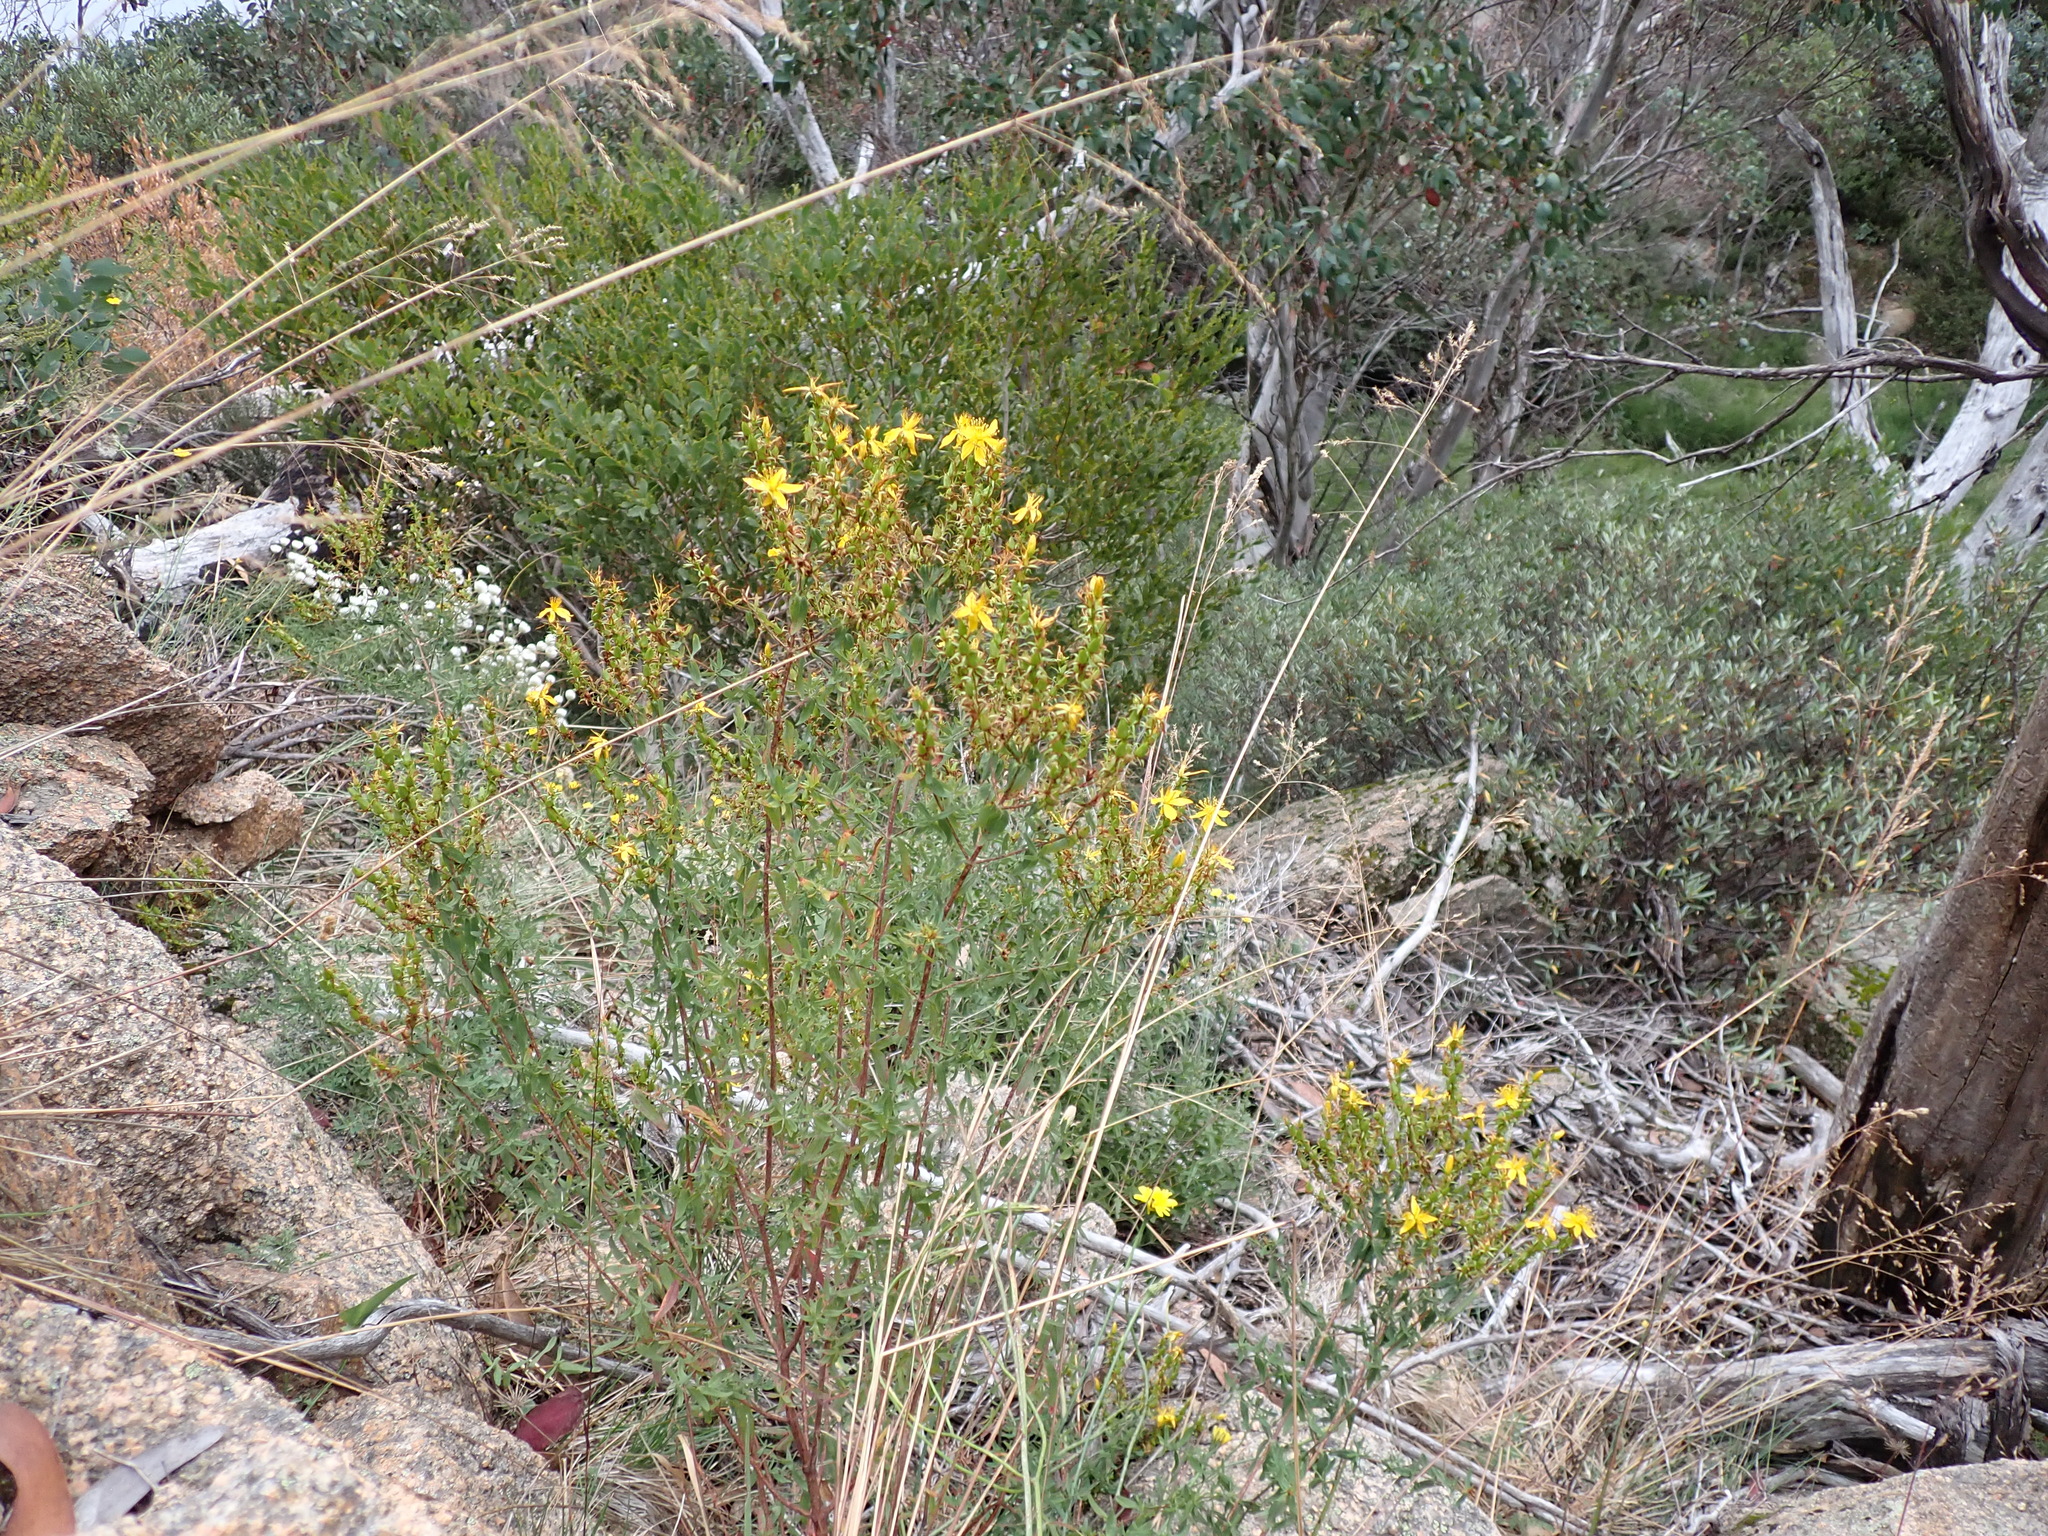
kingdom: Plantae
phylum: Tracheophyta
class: Magnoliopsida
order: Malpighiales
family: Hypericaceae
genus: Hypericum
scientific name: Hypericum perforatum
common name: Common st. johnswort
